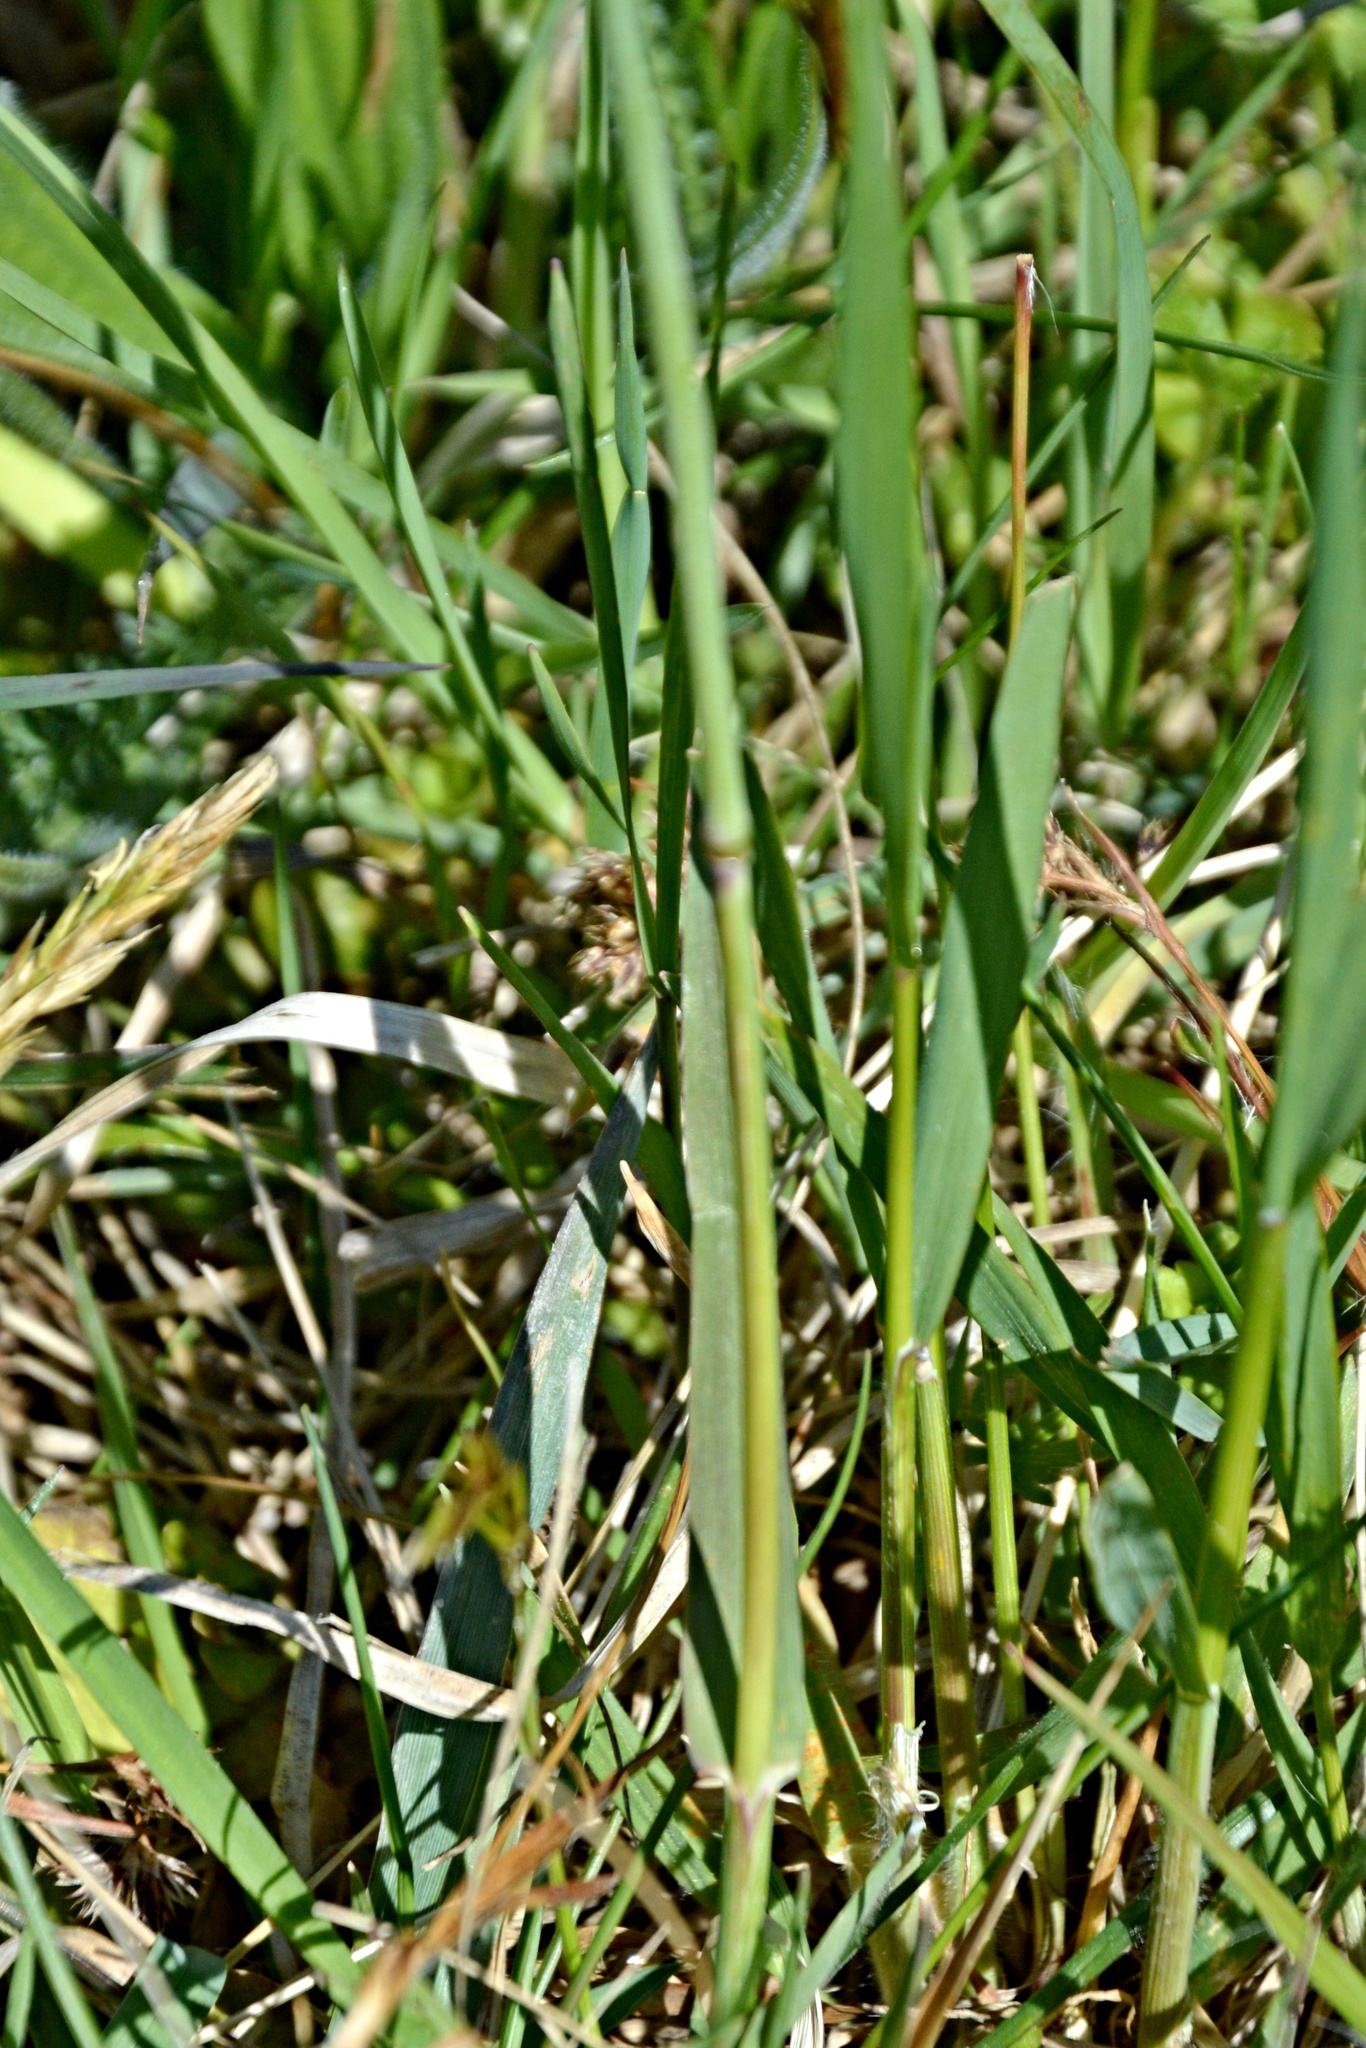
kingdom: Plantae
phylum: Tracheophyta
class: Liliopsida
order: Poales
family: Poaceae
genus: Alopecurus
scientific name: Alopecurus pratensis
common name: Meadow foxtail
